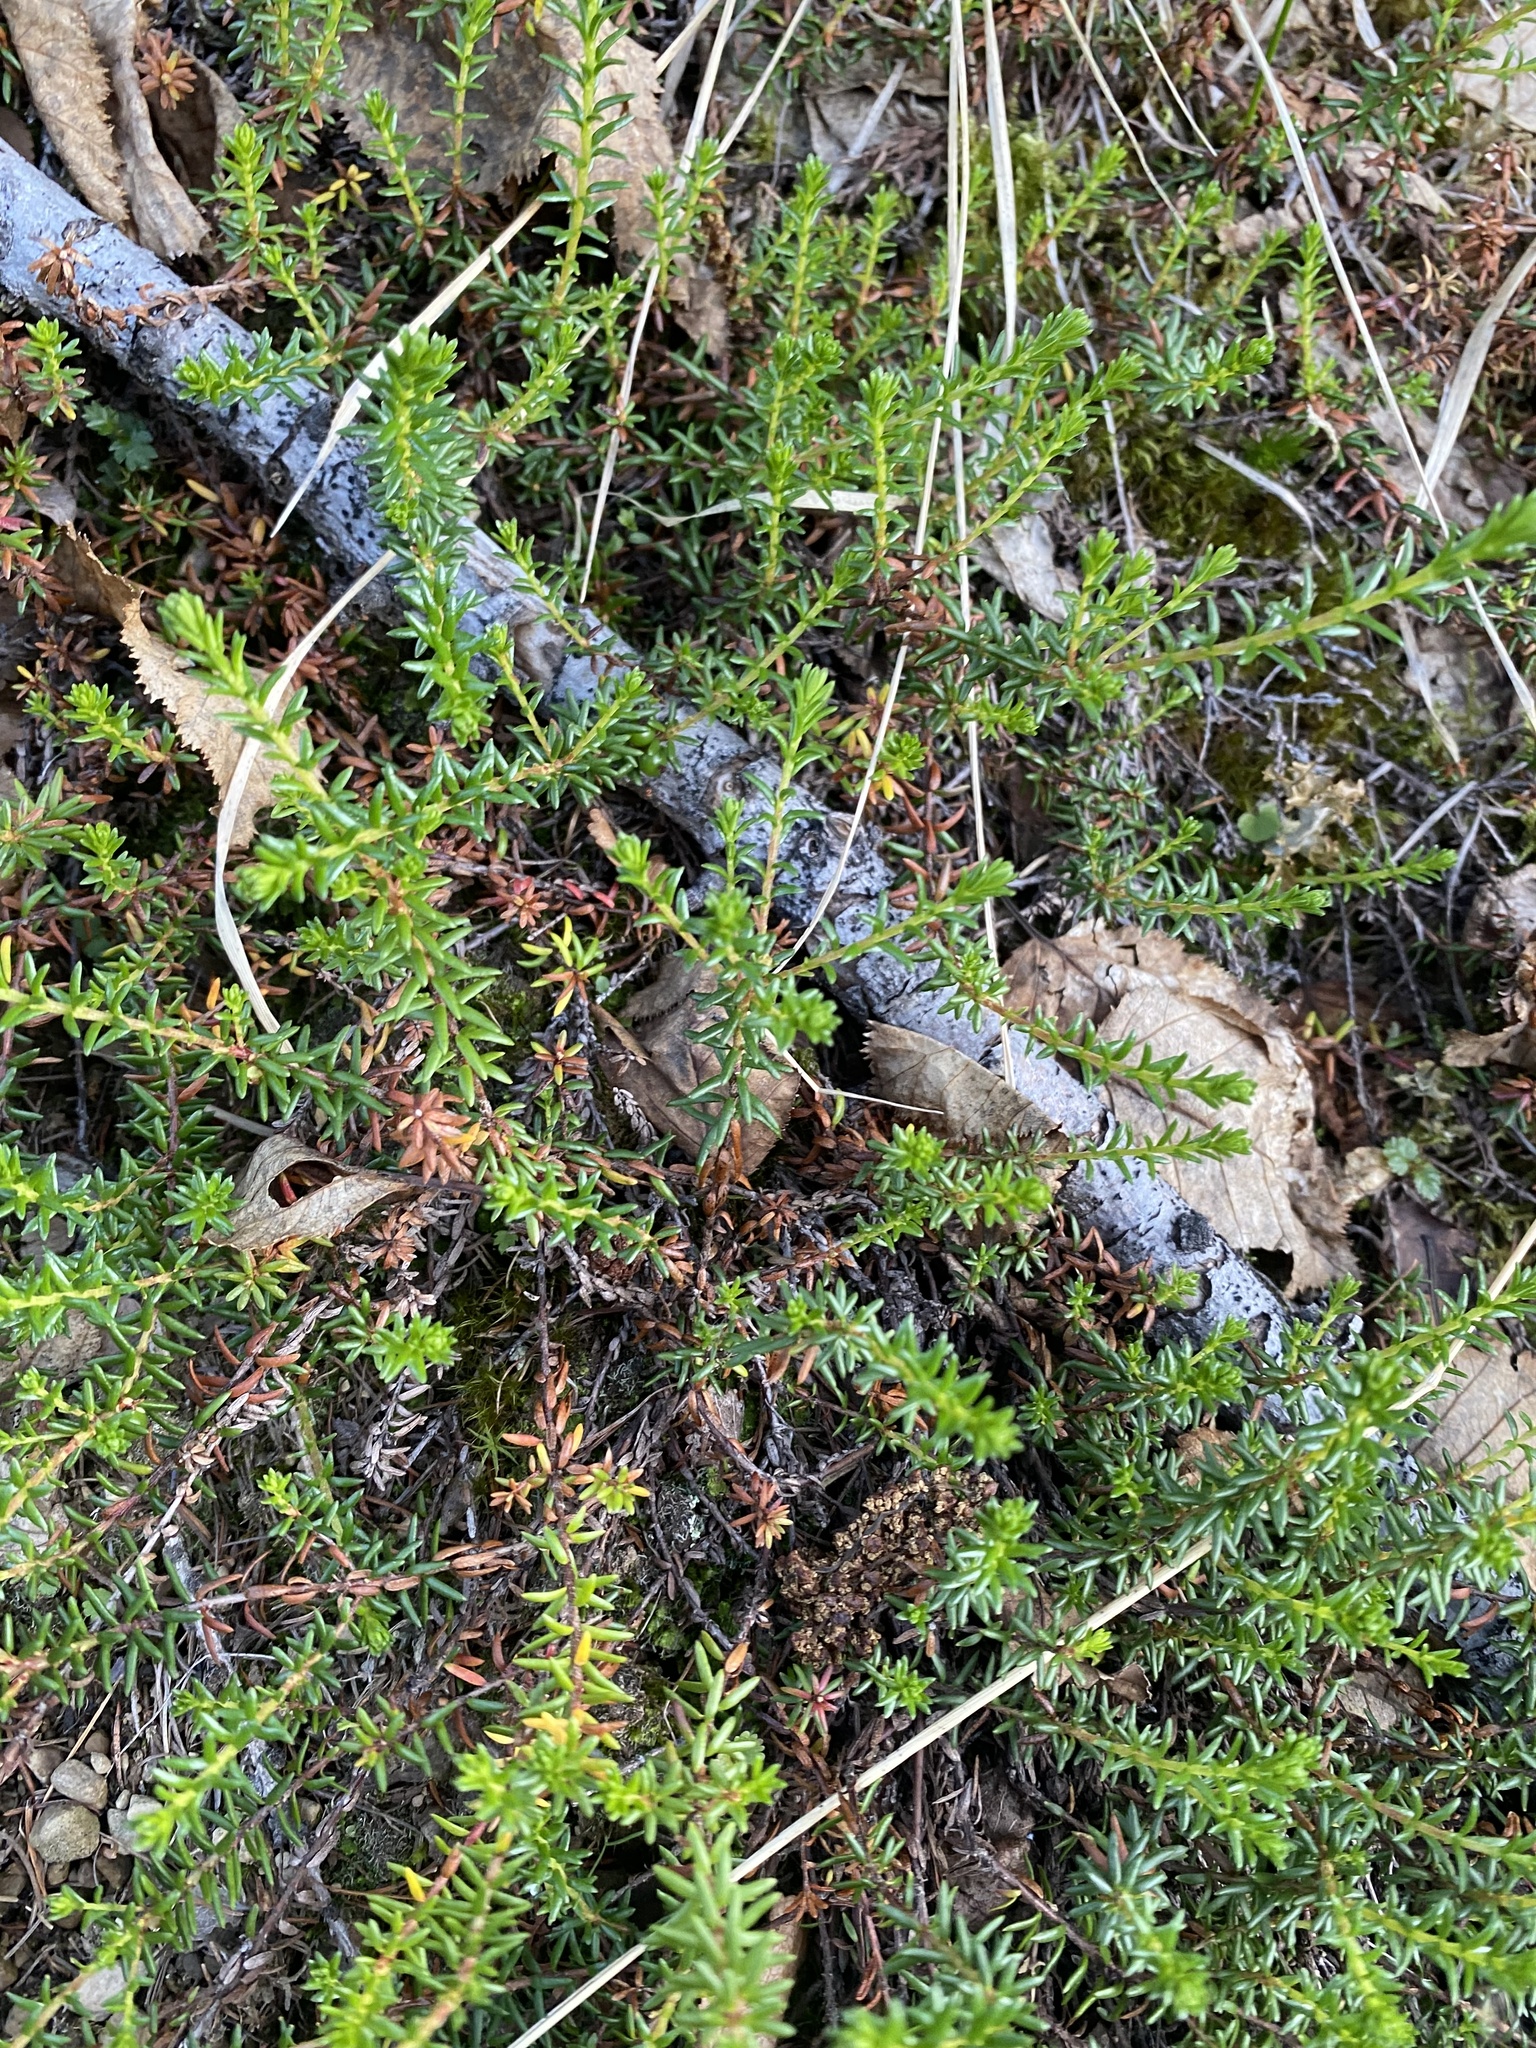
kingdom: Plantae
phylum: Tracheophyta
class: Magnoliopsida
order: Ericales
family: Ericaceae
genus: Empetrum
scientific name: Empetrum nigrum
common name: Black crowberry
